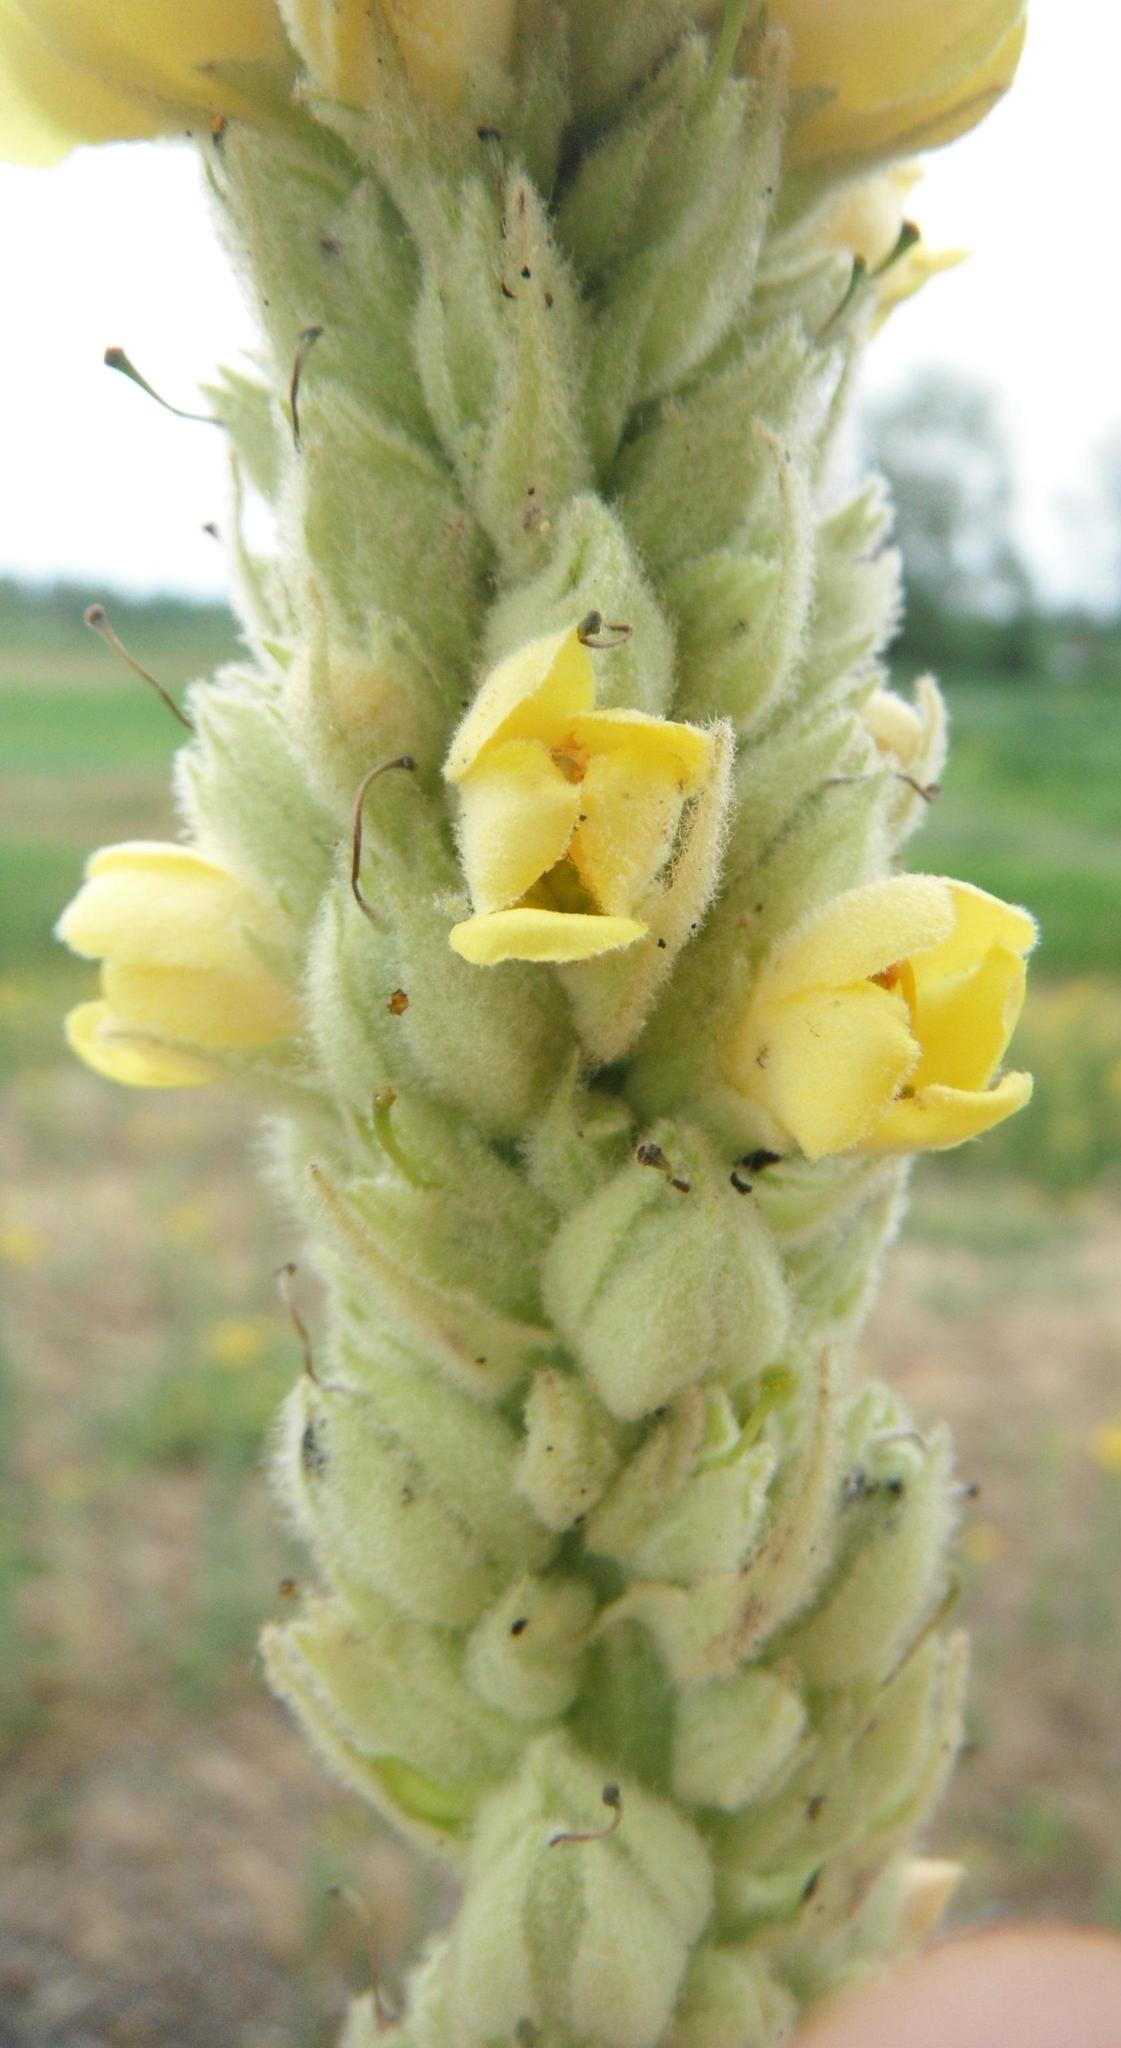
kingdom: Plantae
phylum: Tracheophyta
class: Magnoliopsida
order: Lamiales
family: Scrophulariaceae
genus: Verbascum
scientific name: Verbascum thapsus
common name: Common mullein
